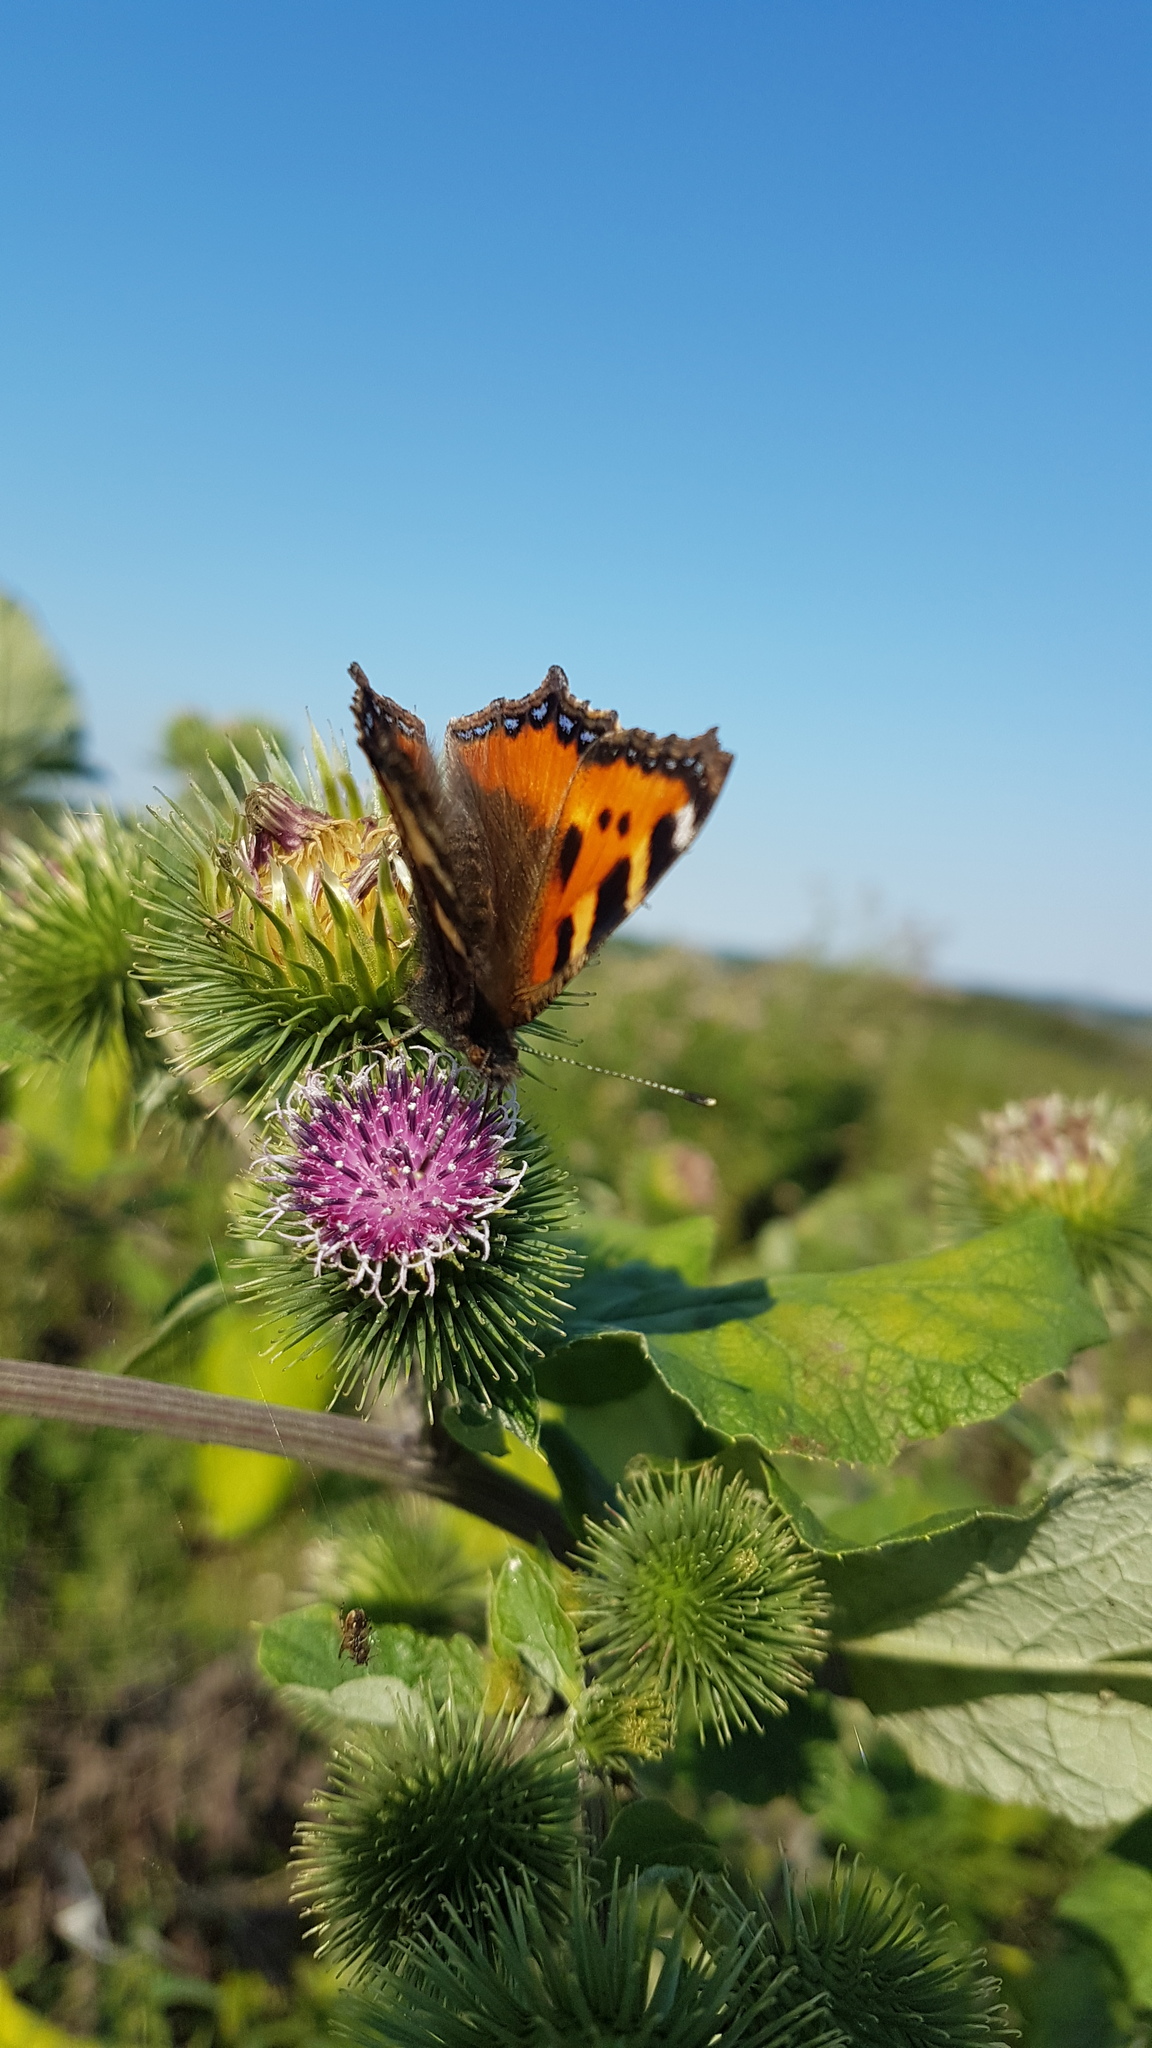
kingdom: Animalia
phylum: Arthropoda
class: Insecta
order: Lepidoptera
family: Nymphalidae
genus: Aglais
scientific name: Aglais urticae
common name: Small tortoiseshell
